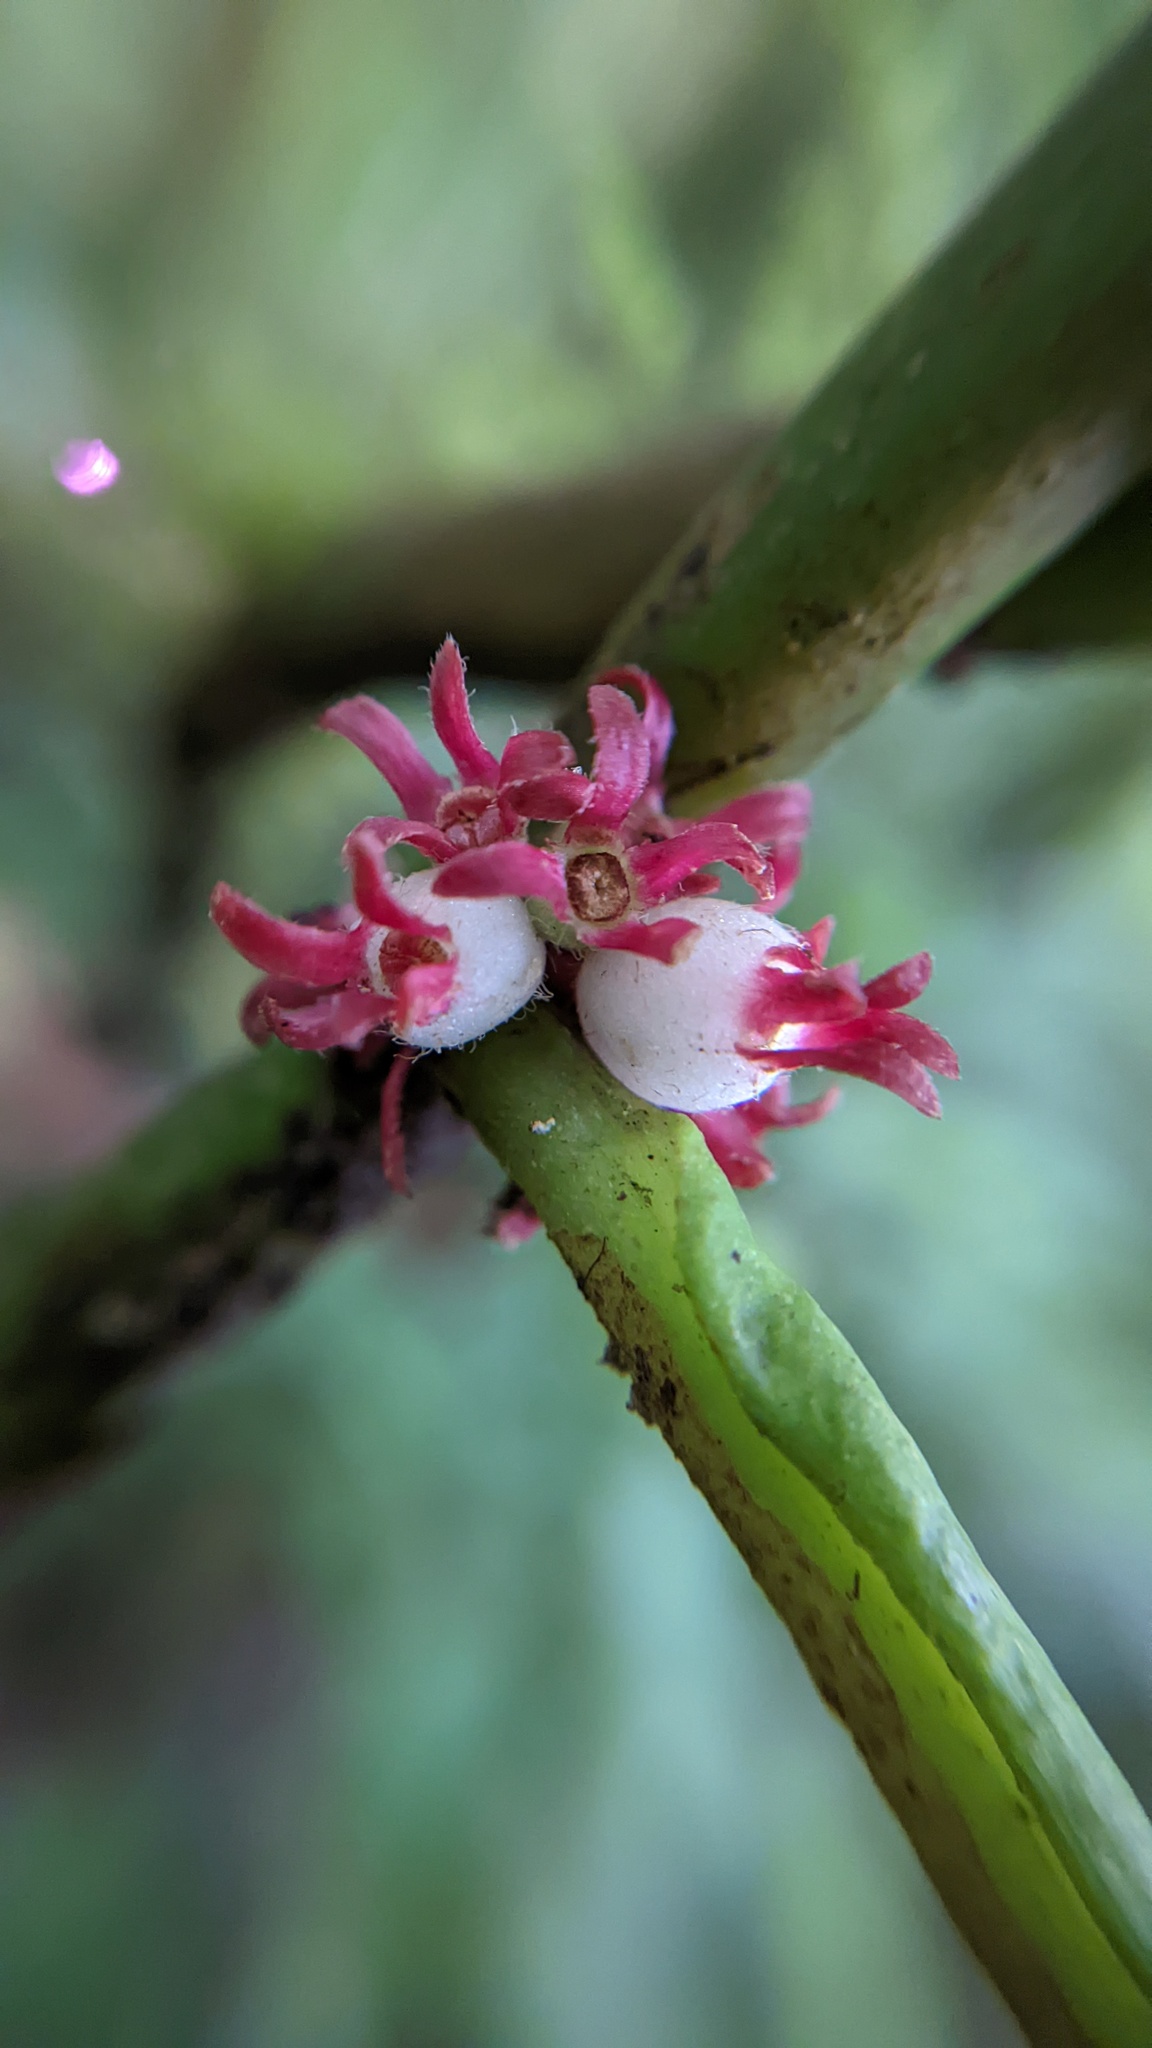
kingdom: Plantae
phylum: Tracheophyta
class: Magnoliopsida
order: Gentianales
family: Rubiaceae
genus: Hoffmannia
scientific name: Hoffmannia congesta
